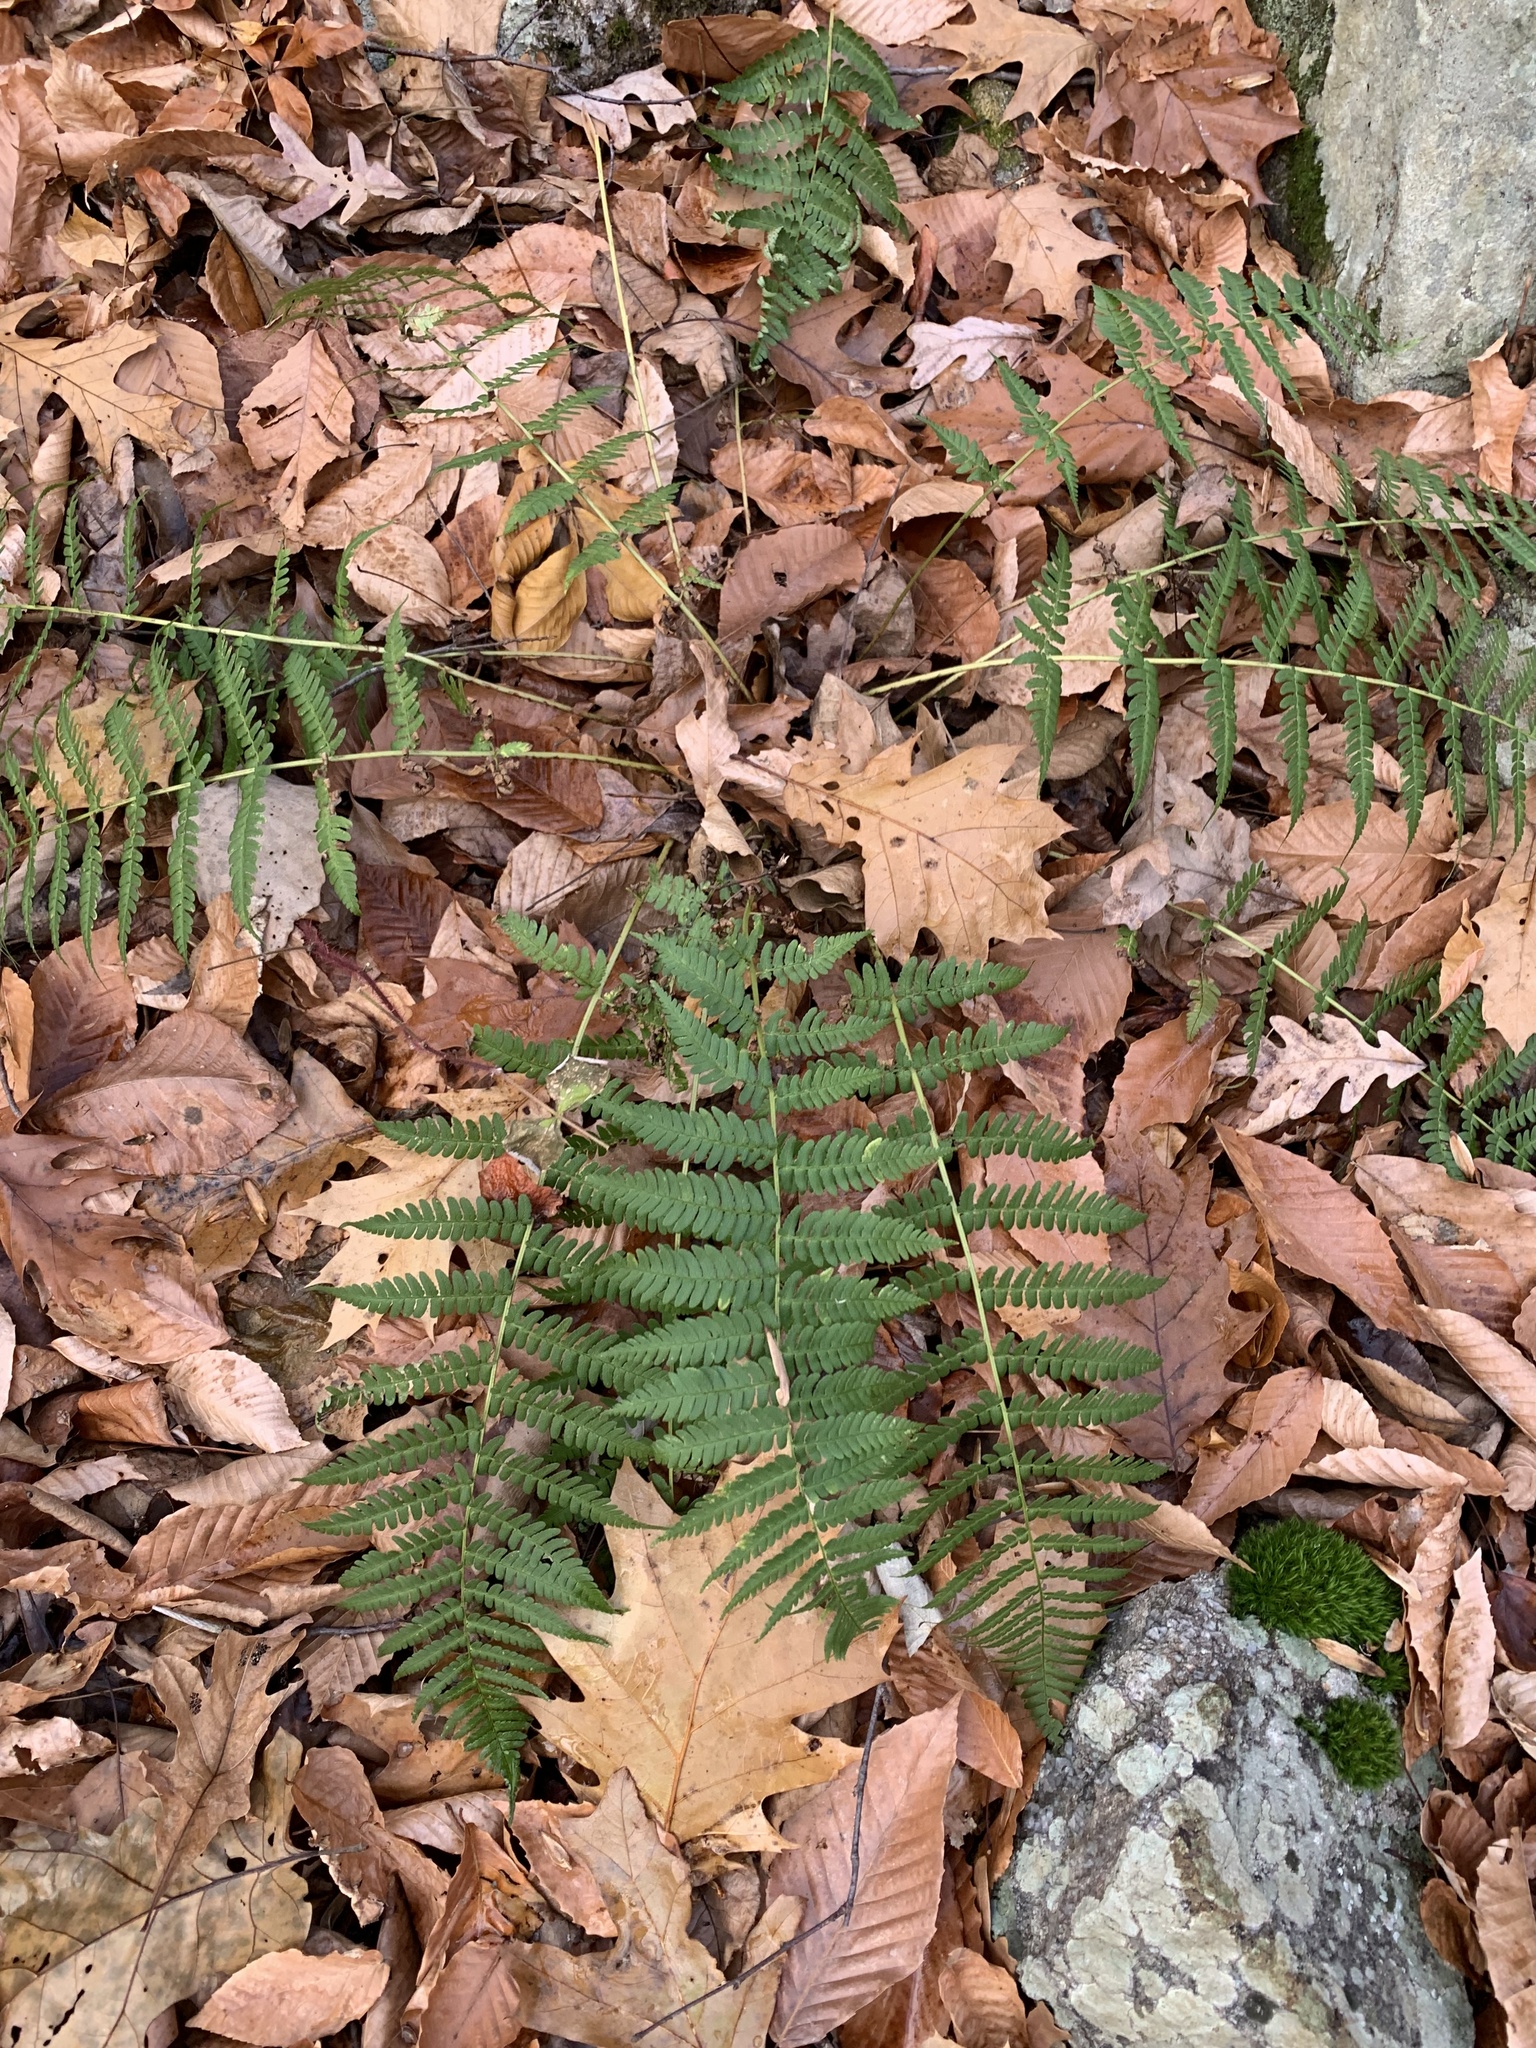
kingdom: Plantae
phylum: Tracheophyta
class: Polypodiopsida
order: Polypodiales
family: Dryopteridaceae
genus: Dryopteris
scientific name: Dryopteris marginalis
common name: Marginal wood fern
